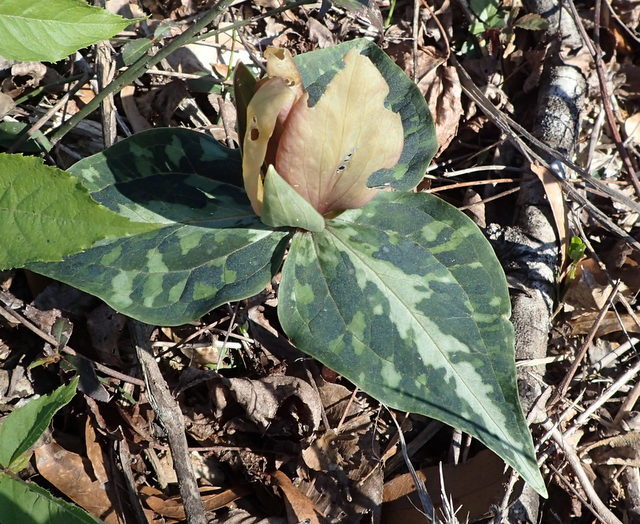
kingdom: Plantae
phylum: Tracheophyta
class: Liliopsida
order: Liliales
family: Melanthiaceae
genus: Trillium
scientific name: Trillium underwoodii
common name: Longbract wakerobin
